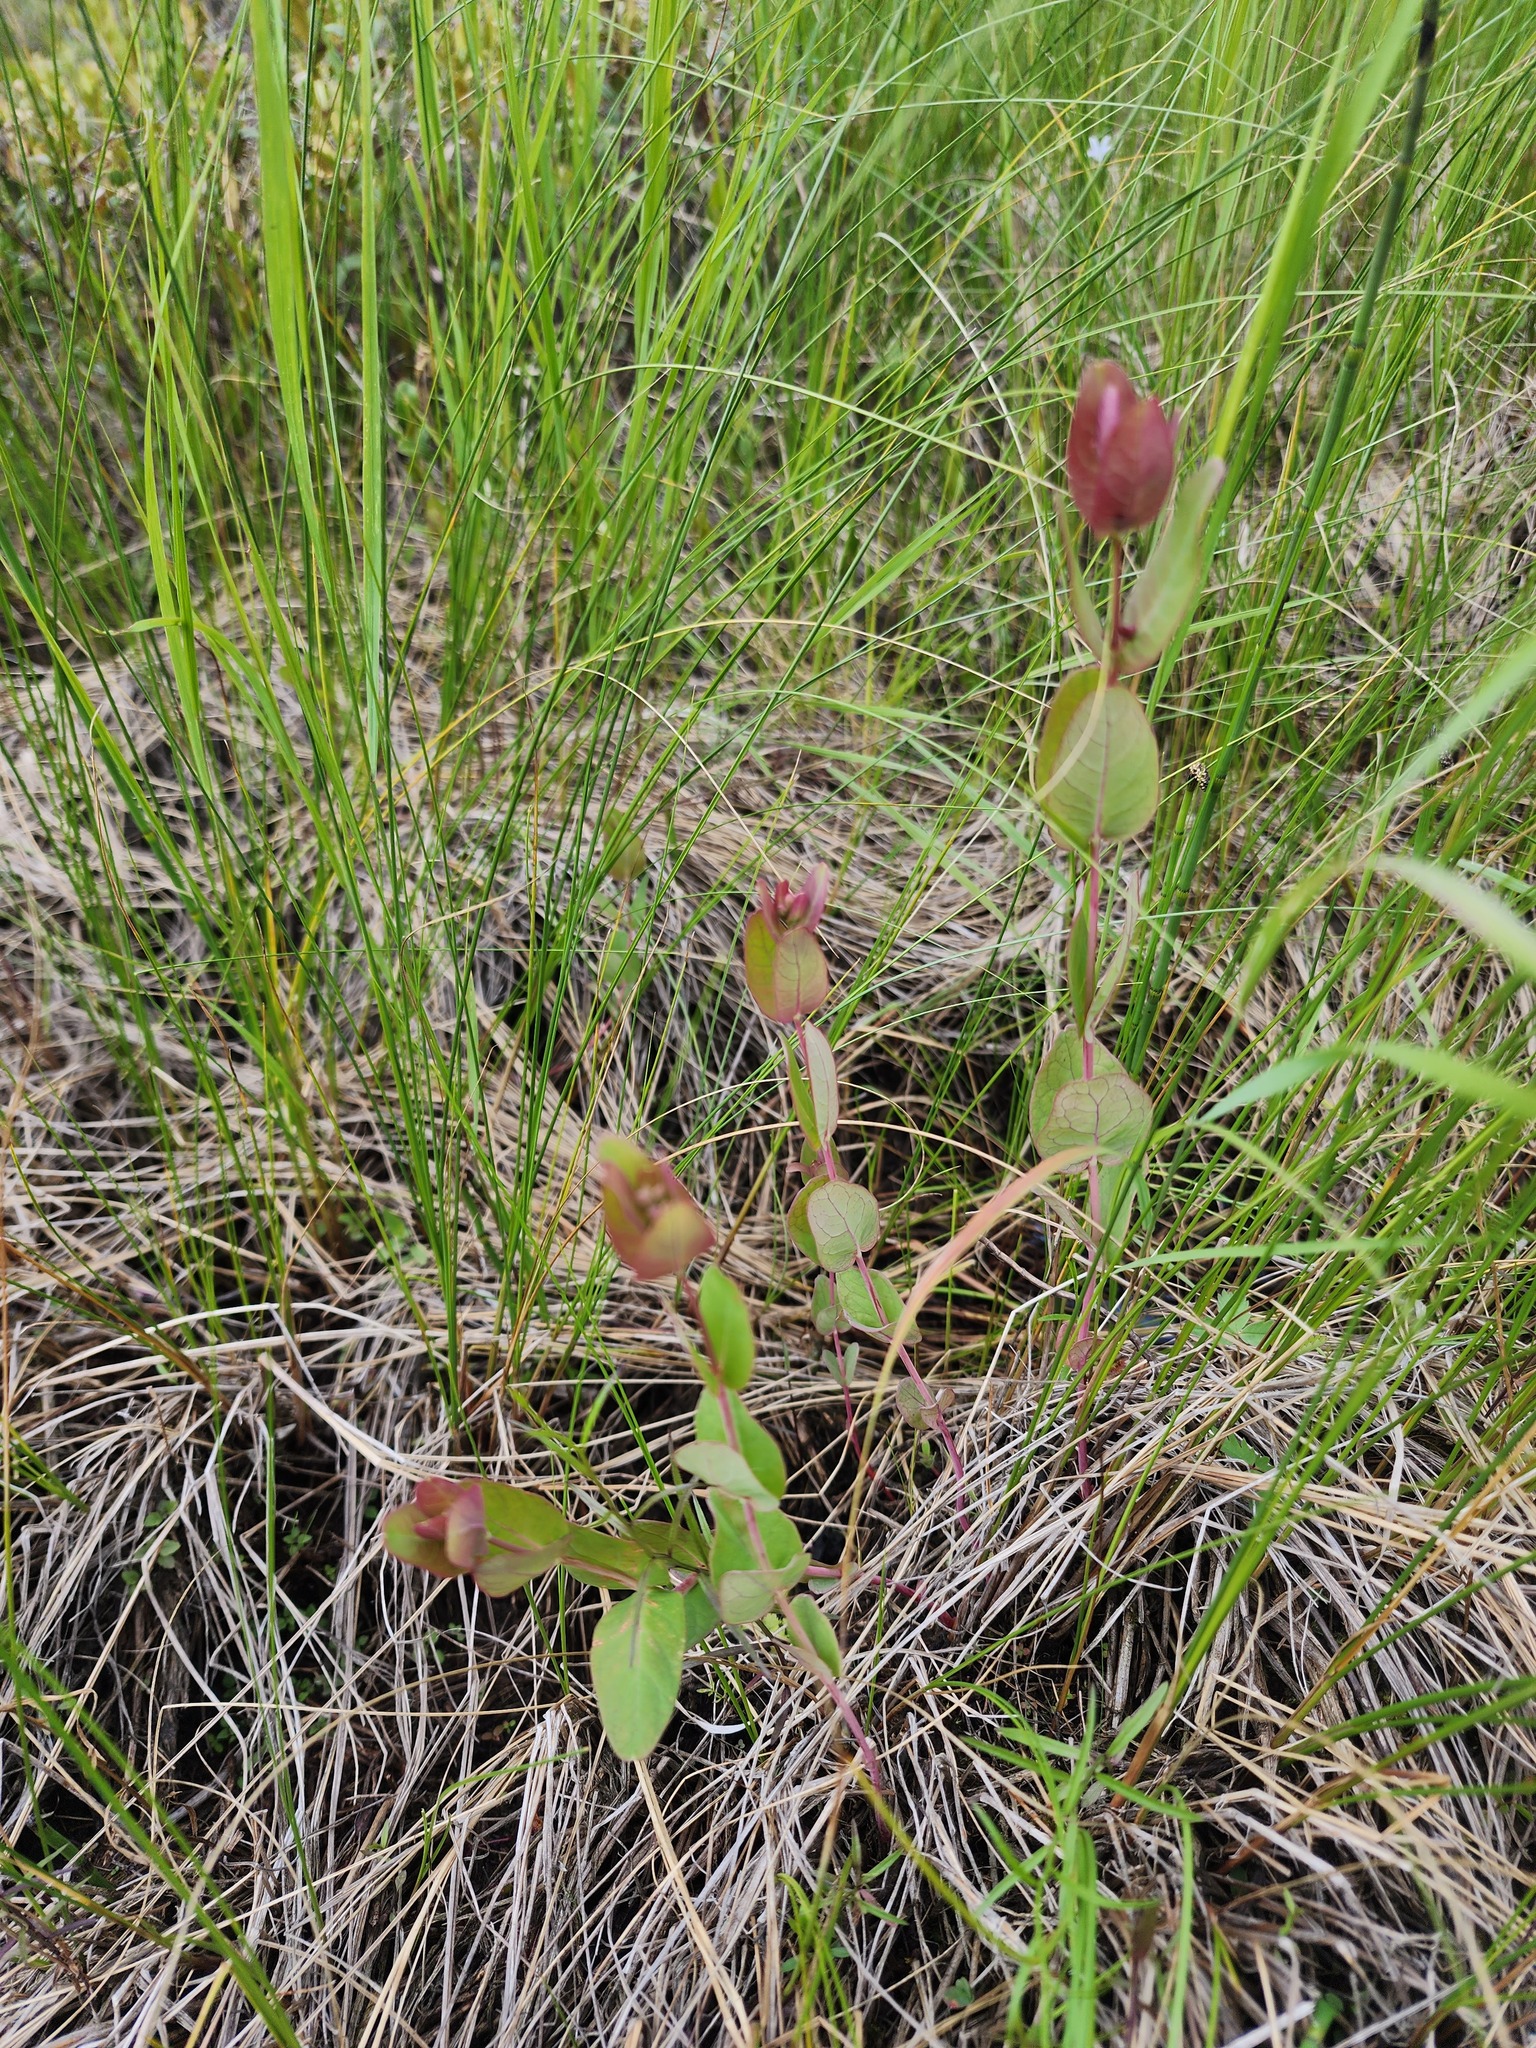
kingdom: Plantae
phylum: Tracheophyta
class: Magnoliopsida
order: Malpighiales
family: Hypericaceae
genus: Triadenum
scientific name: Triadenum fraseri
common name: Fraser's marsh st. johnswort
